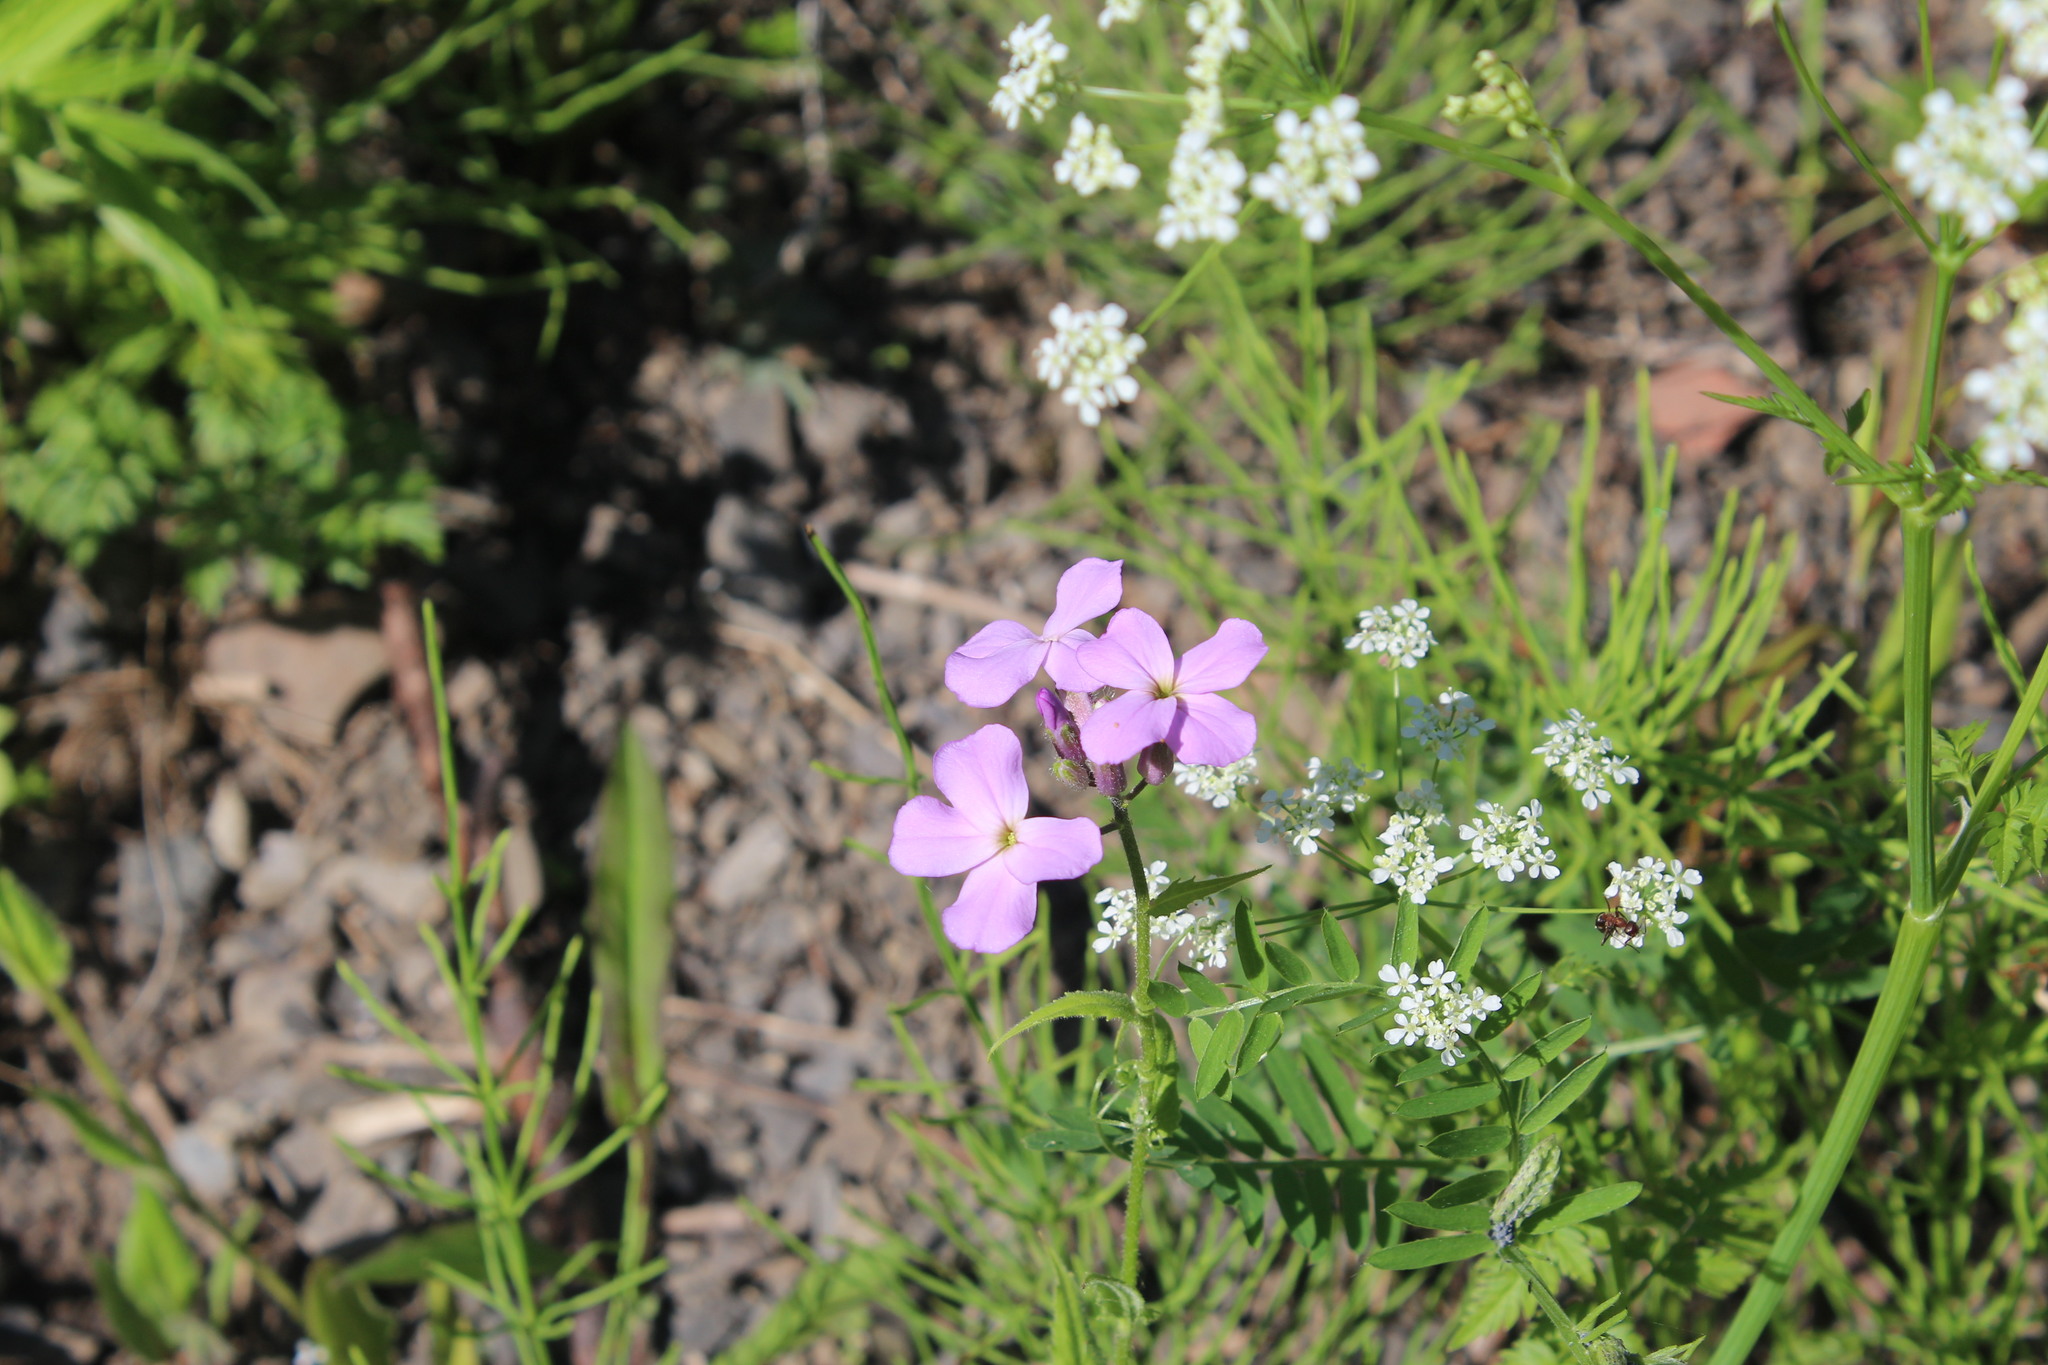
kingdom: Plantae
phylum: Tracheophyta
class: Magnoliopsida
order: Brassicales
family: Brassicaceae
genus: Hesperis
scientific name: Hesperis matronalis
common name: Dame's-violet
